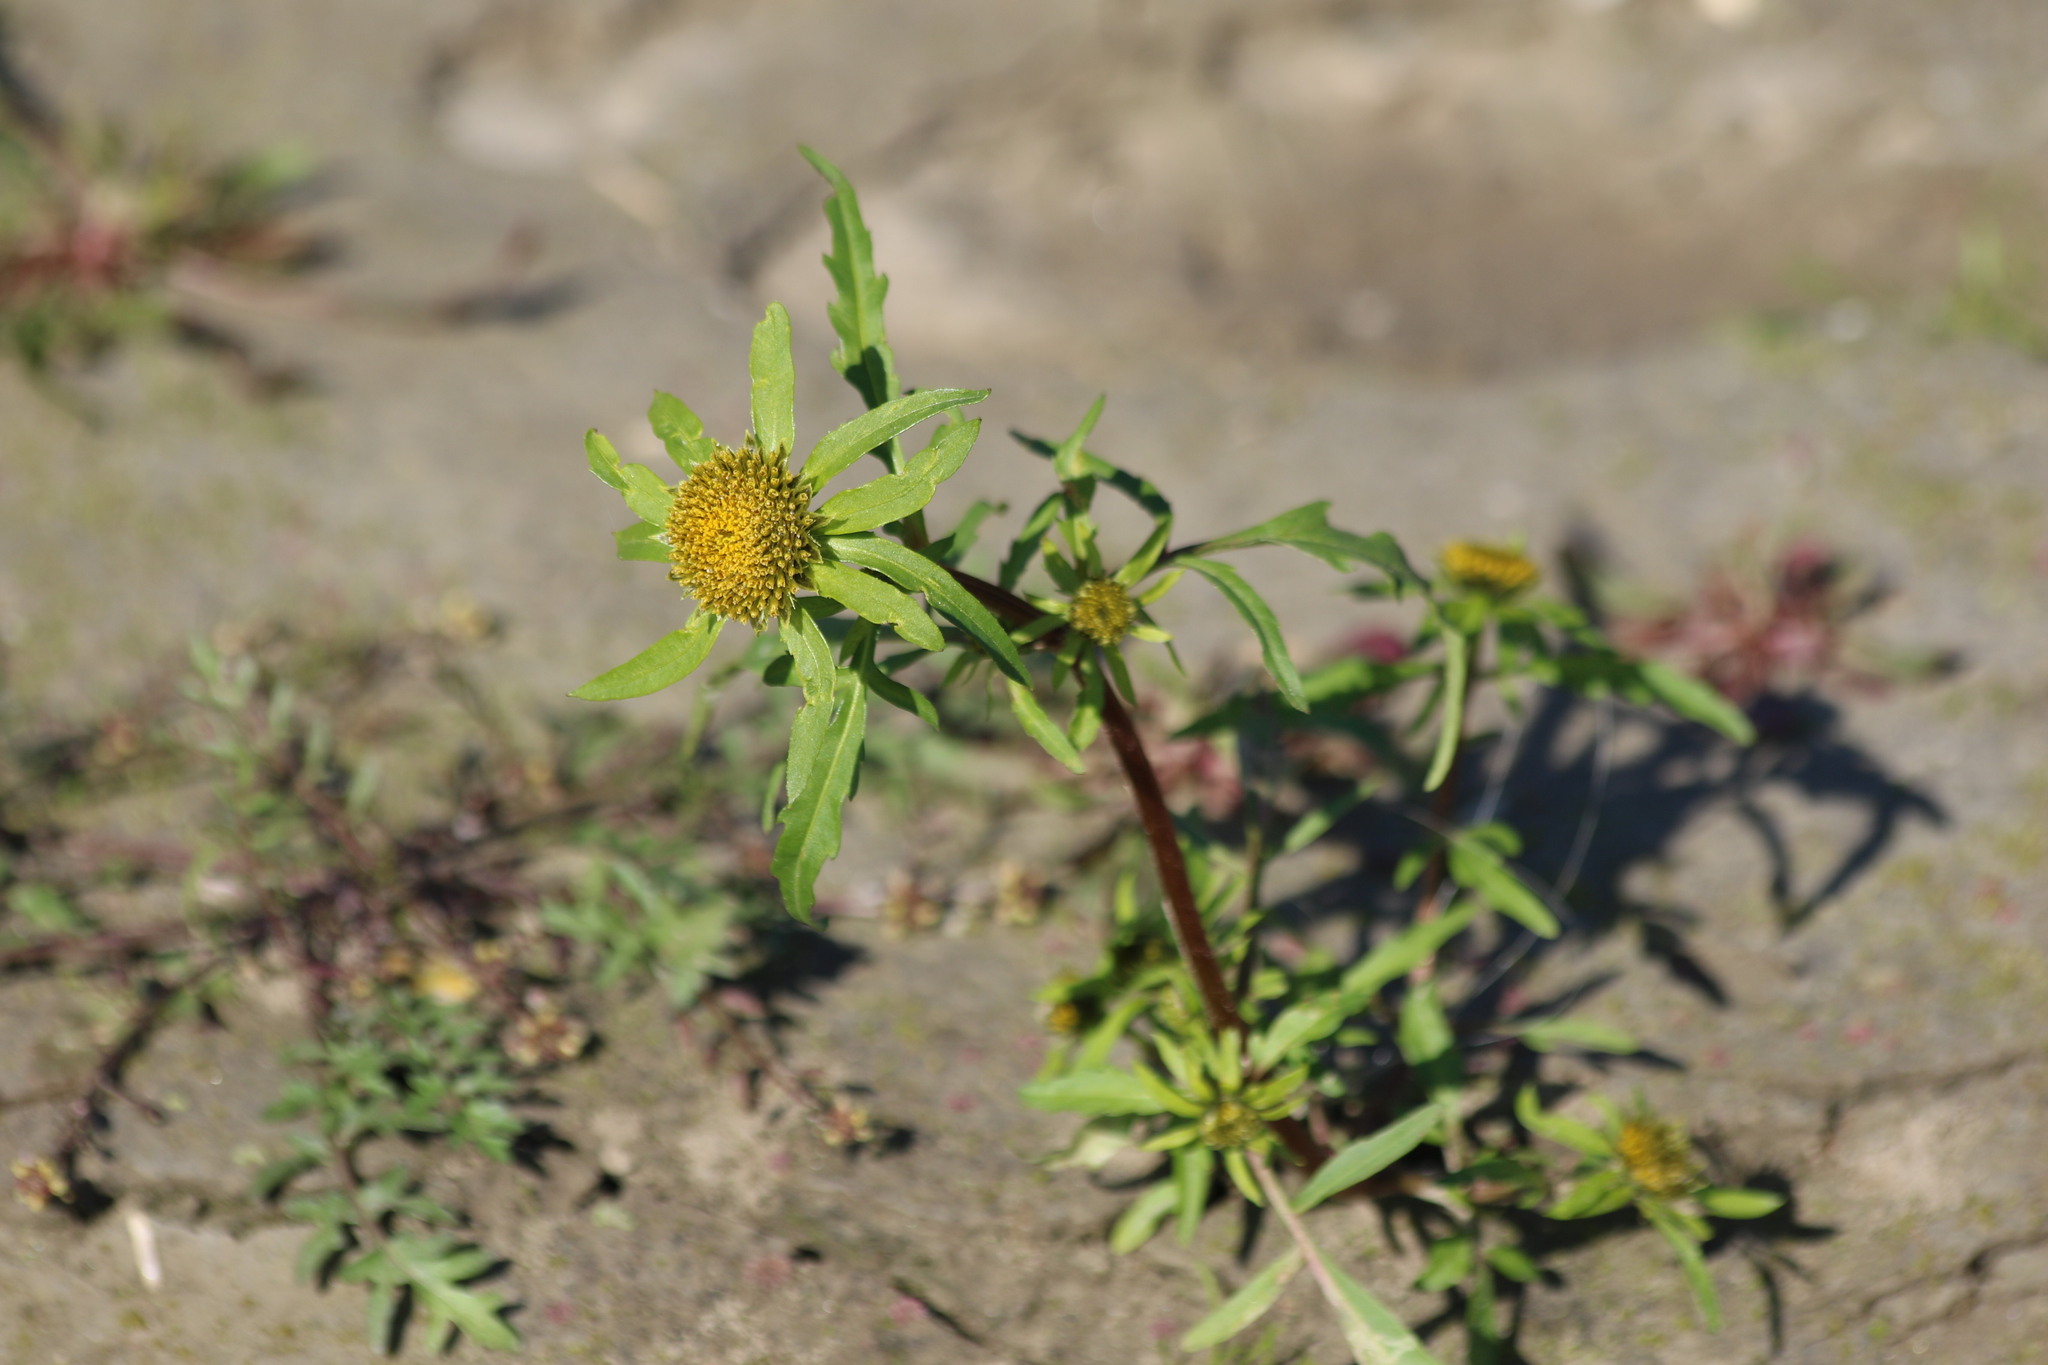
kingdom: Plantae
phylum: Tracheophyta
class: Magnoliopsida
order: Asterales
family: Asteraceae
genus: Bidens
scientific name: Bidens radiata
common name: Radiating bur-marigold
